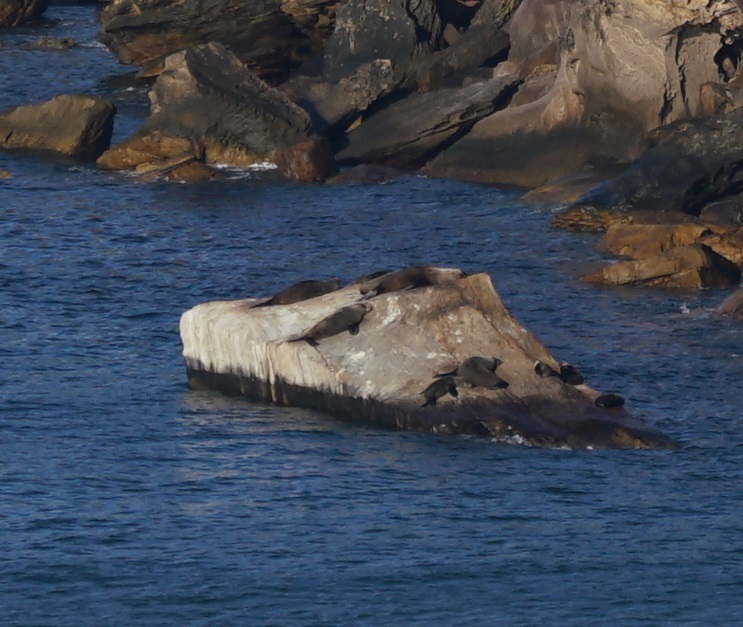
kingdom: Animalia
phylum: Chordata
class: Mammalia
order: Carnivora
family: Otariidae
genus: Arctocephalus
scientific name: Arctocephalus forsteri
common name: New zealand fur seal
